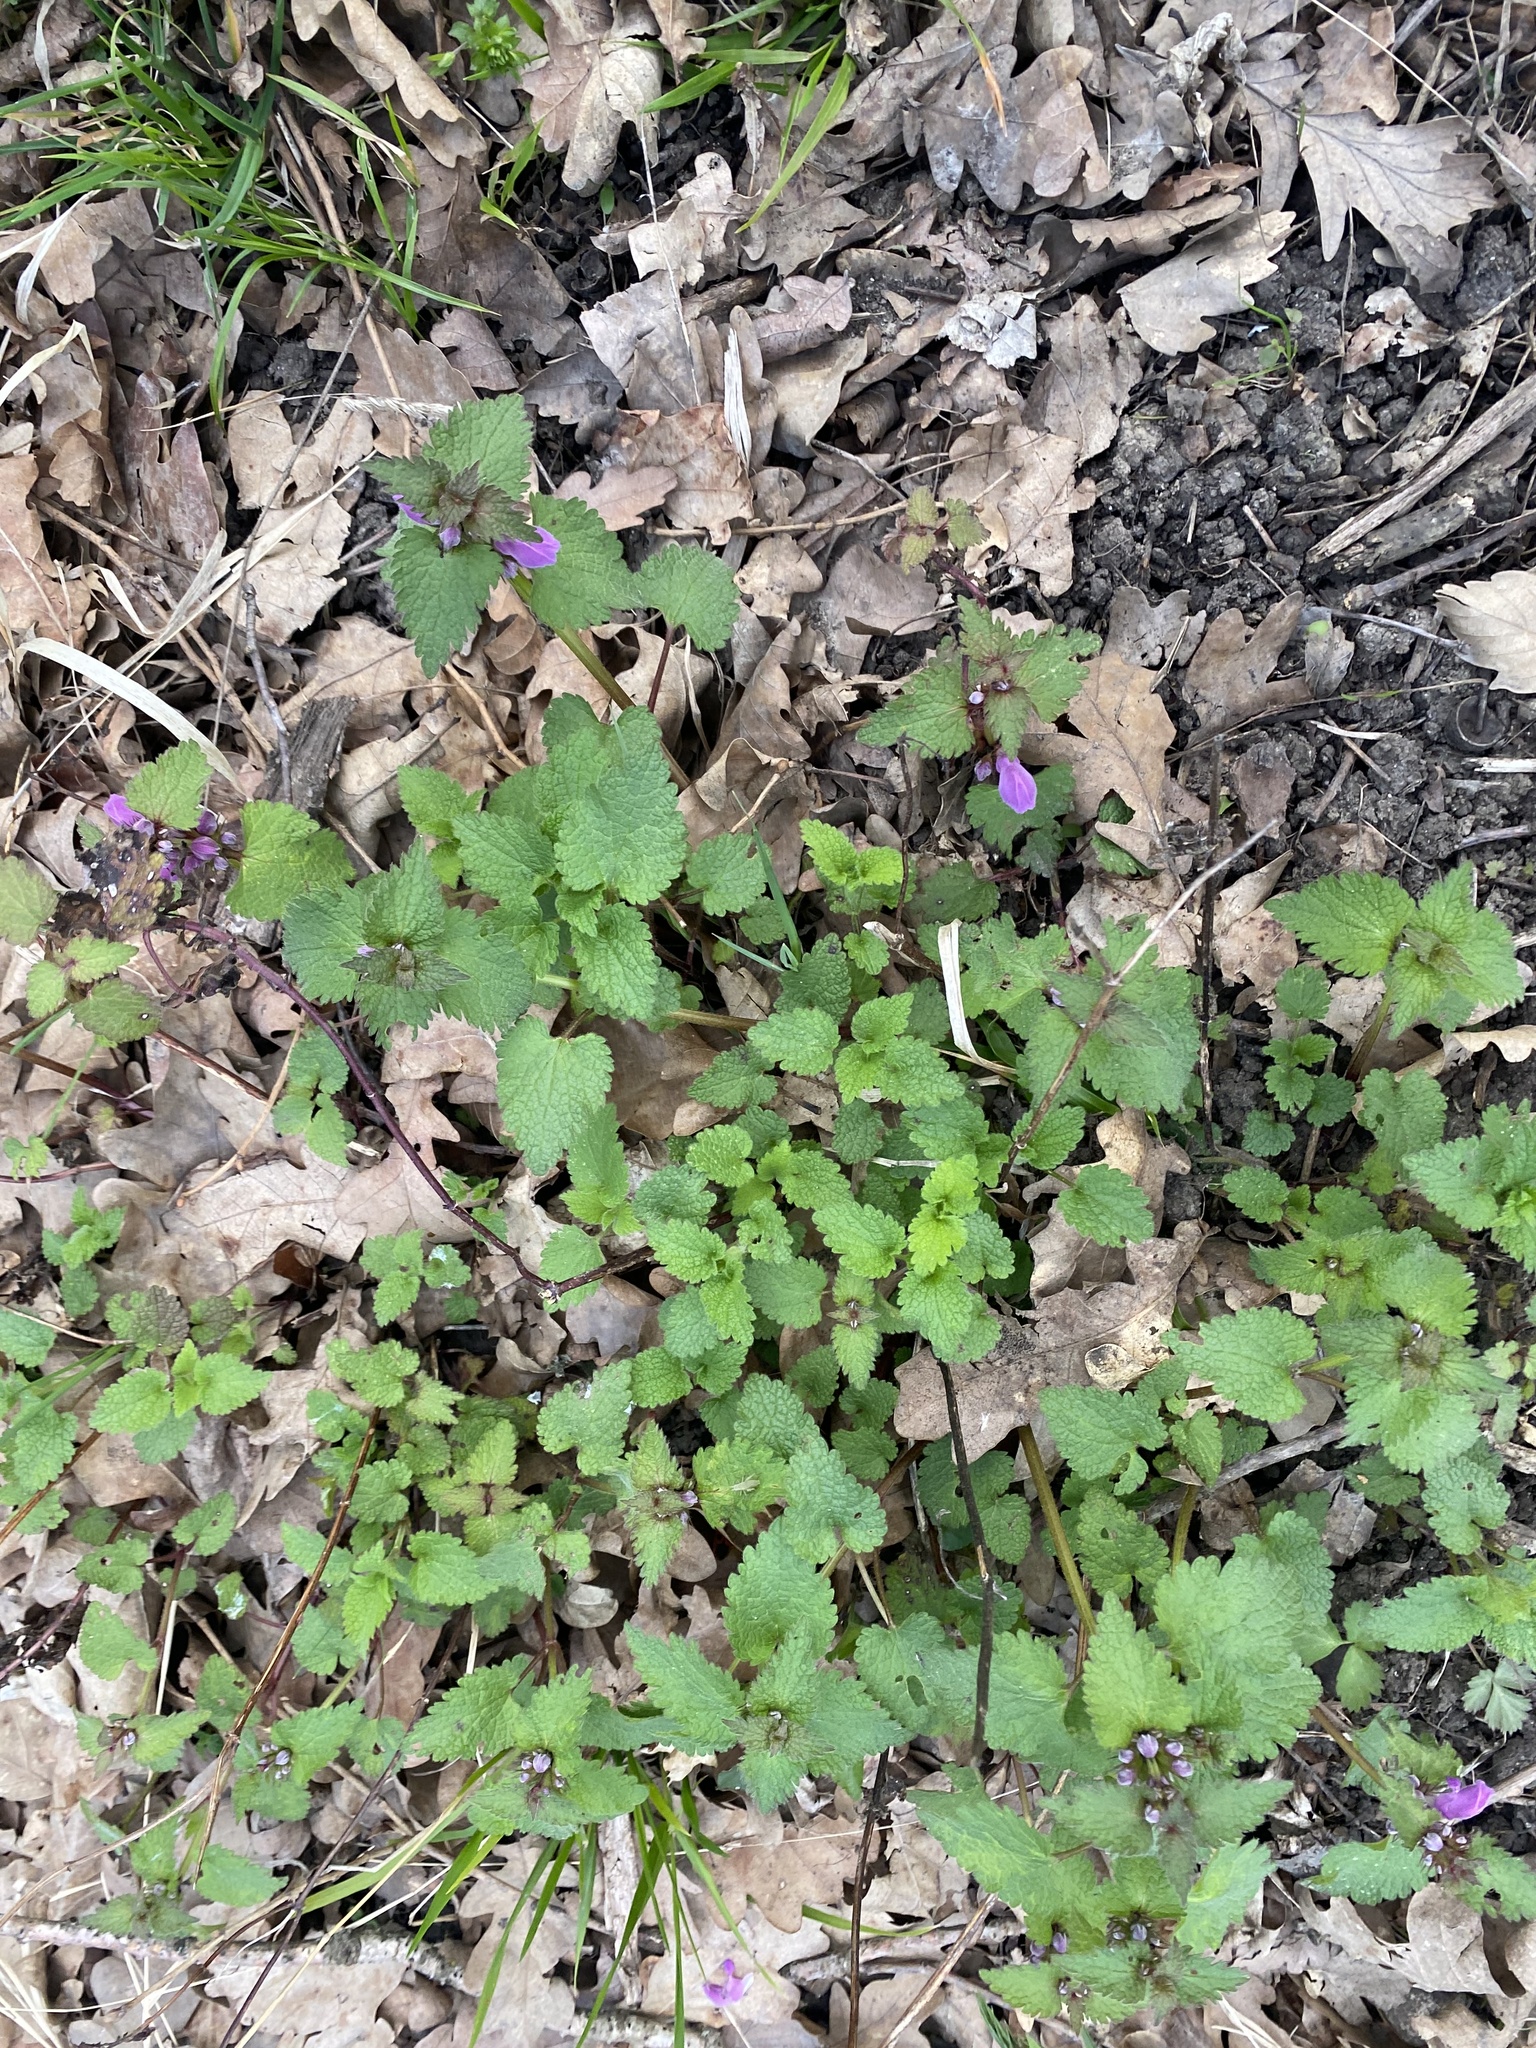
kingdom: Plantae
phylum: Tracheophyta
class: Magnoliopsida
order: Lamiales
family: Lamiaceae
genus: Lamium
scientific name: Lamium maculatum
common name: Spotted dead-nettle
